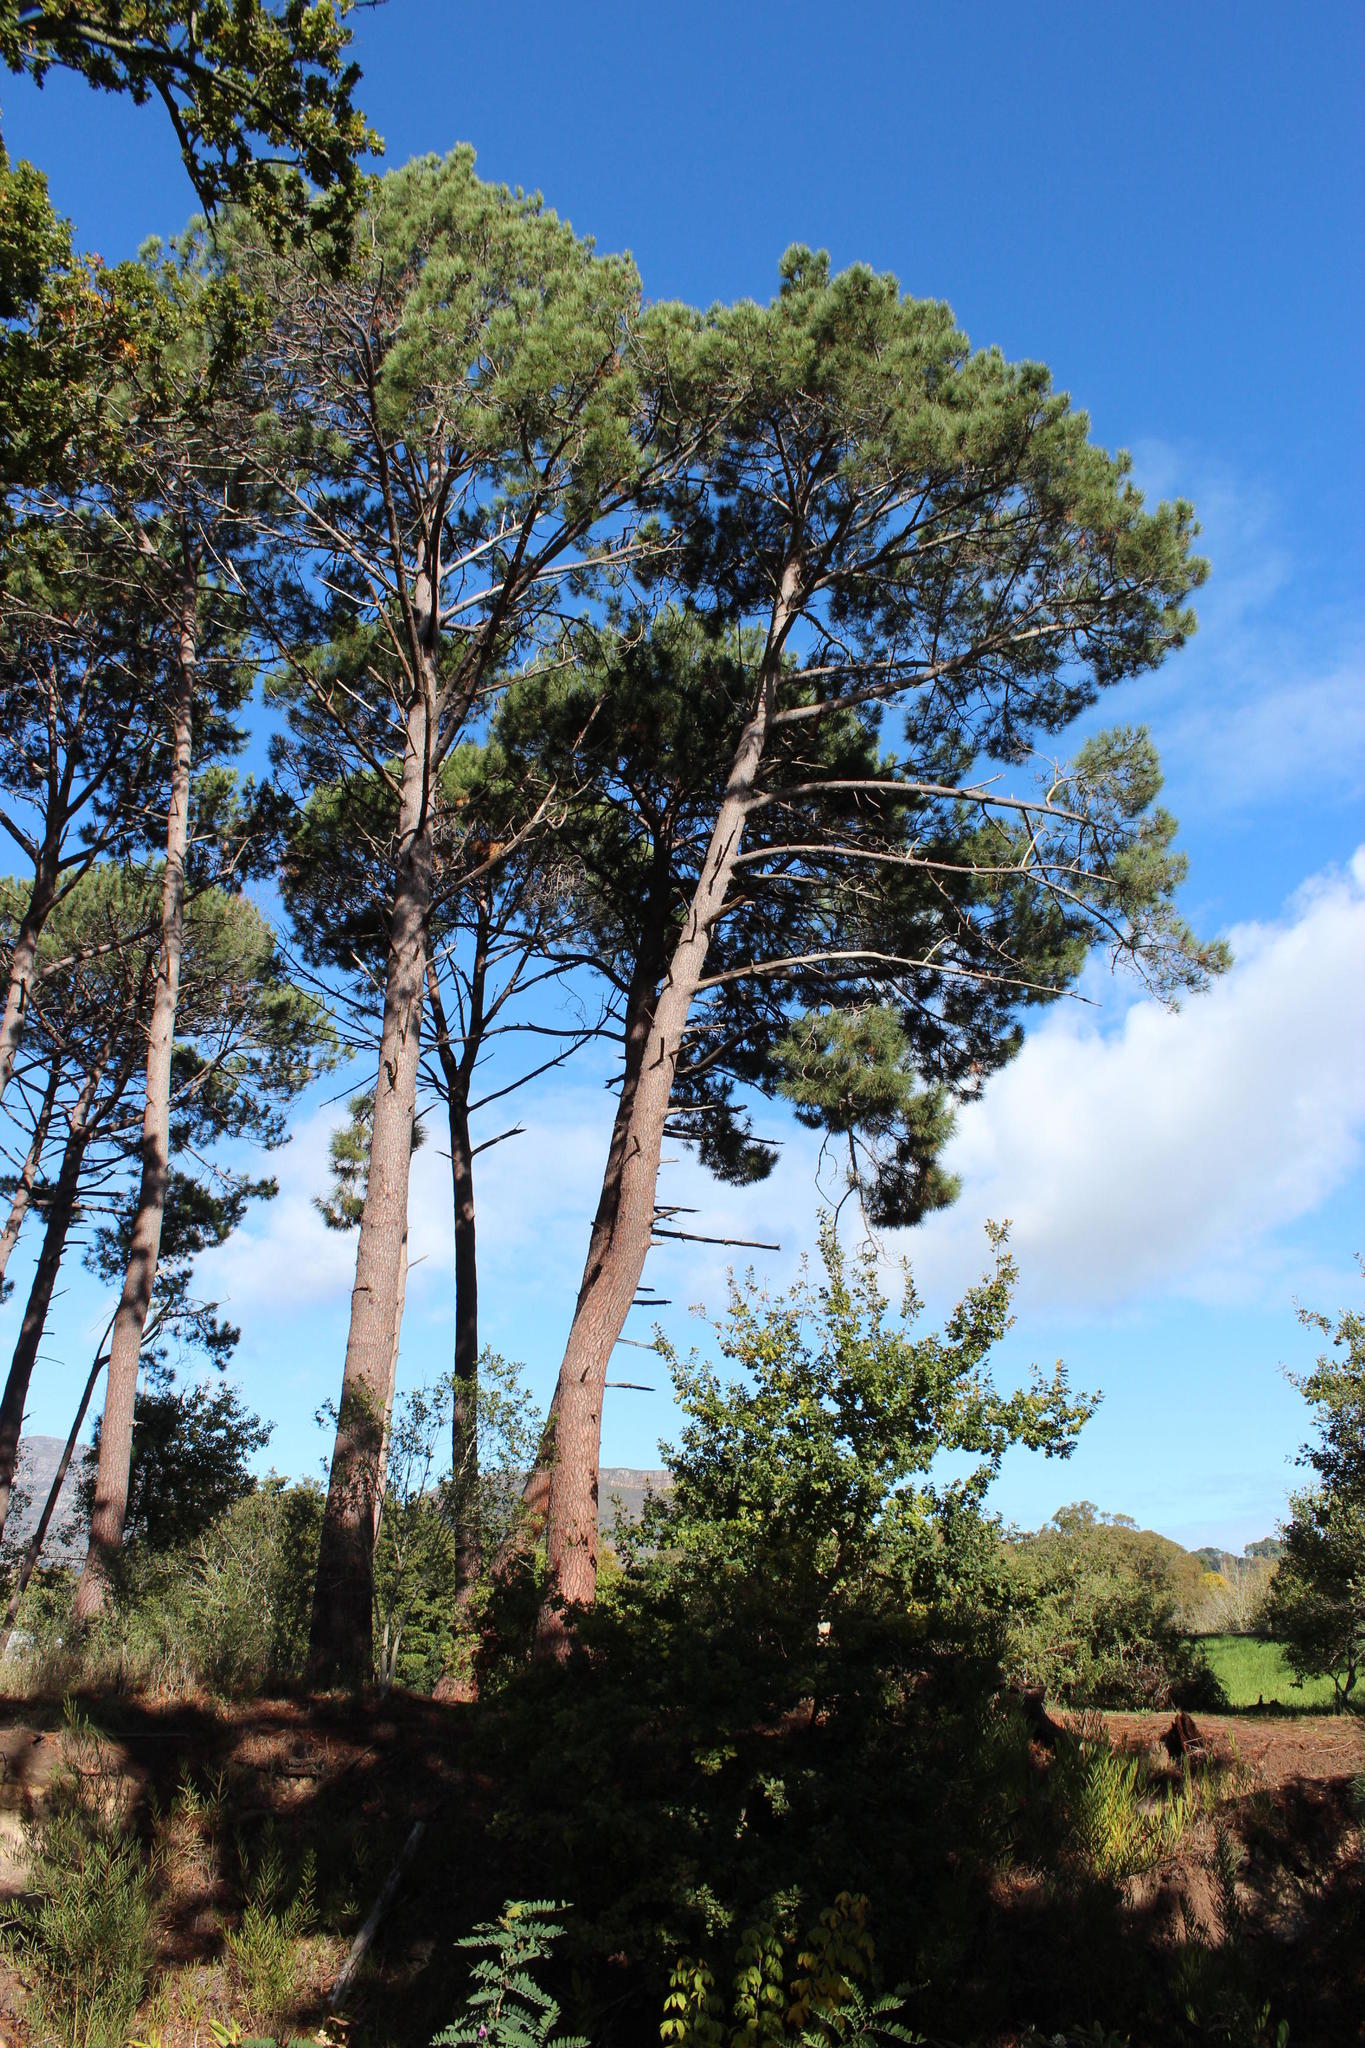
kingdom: Plantae
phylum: Tracheophyta
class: Pinopsida
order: Pinales
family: Pinaceae
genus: Pinus
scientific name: Pinus pinea
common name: Italian stone pine
